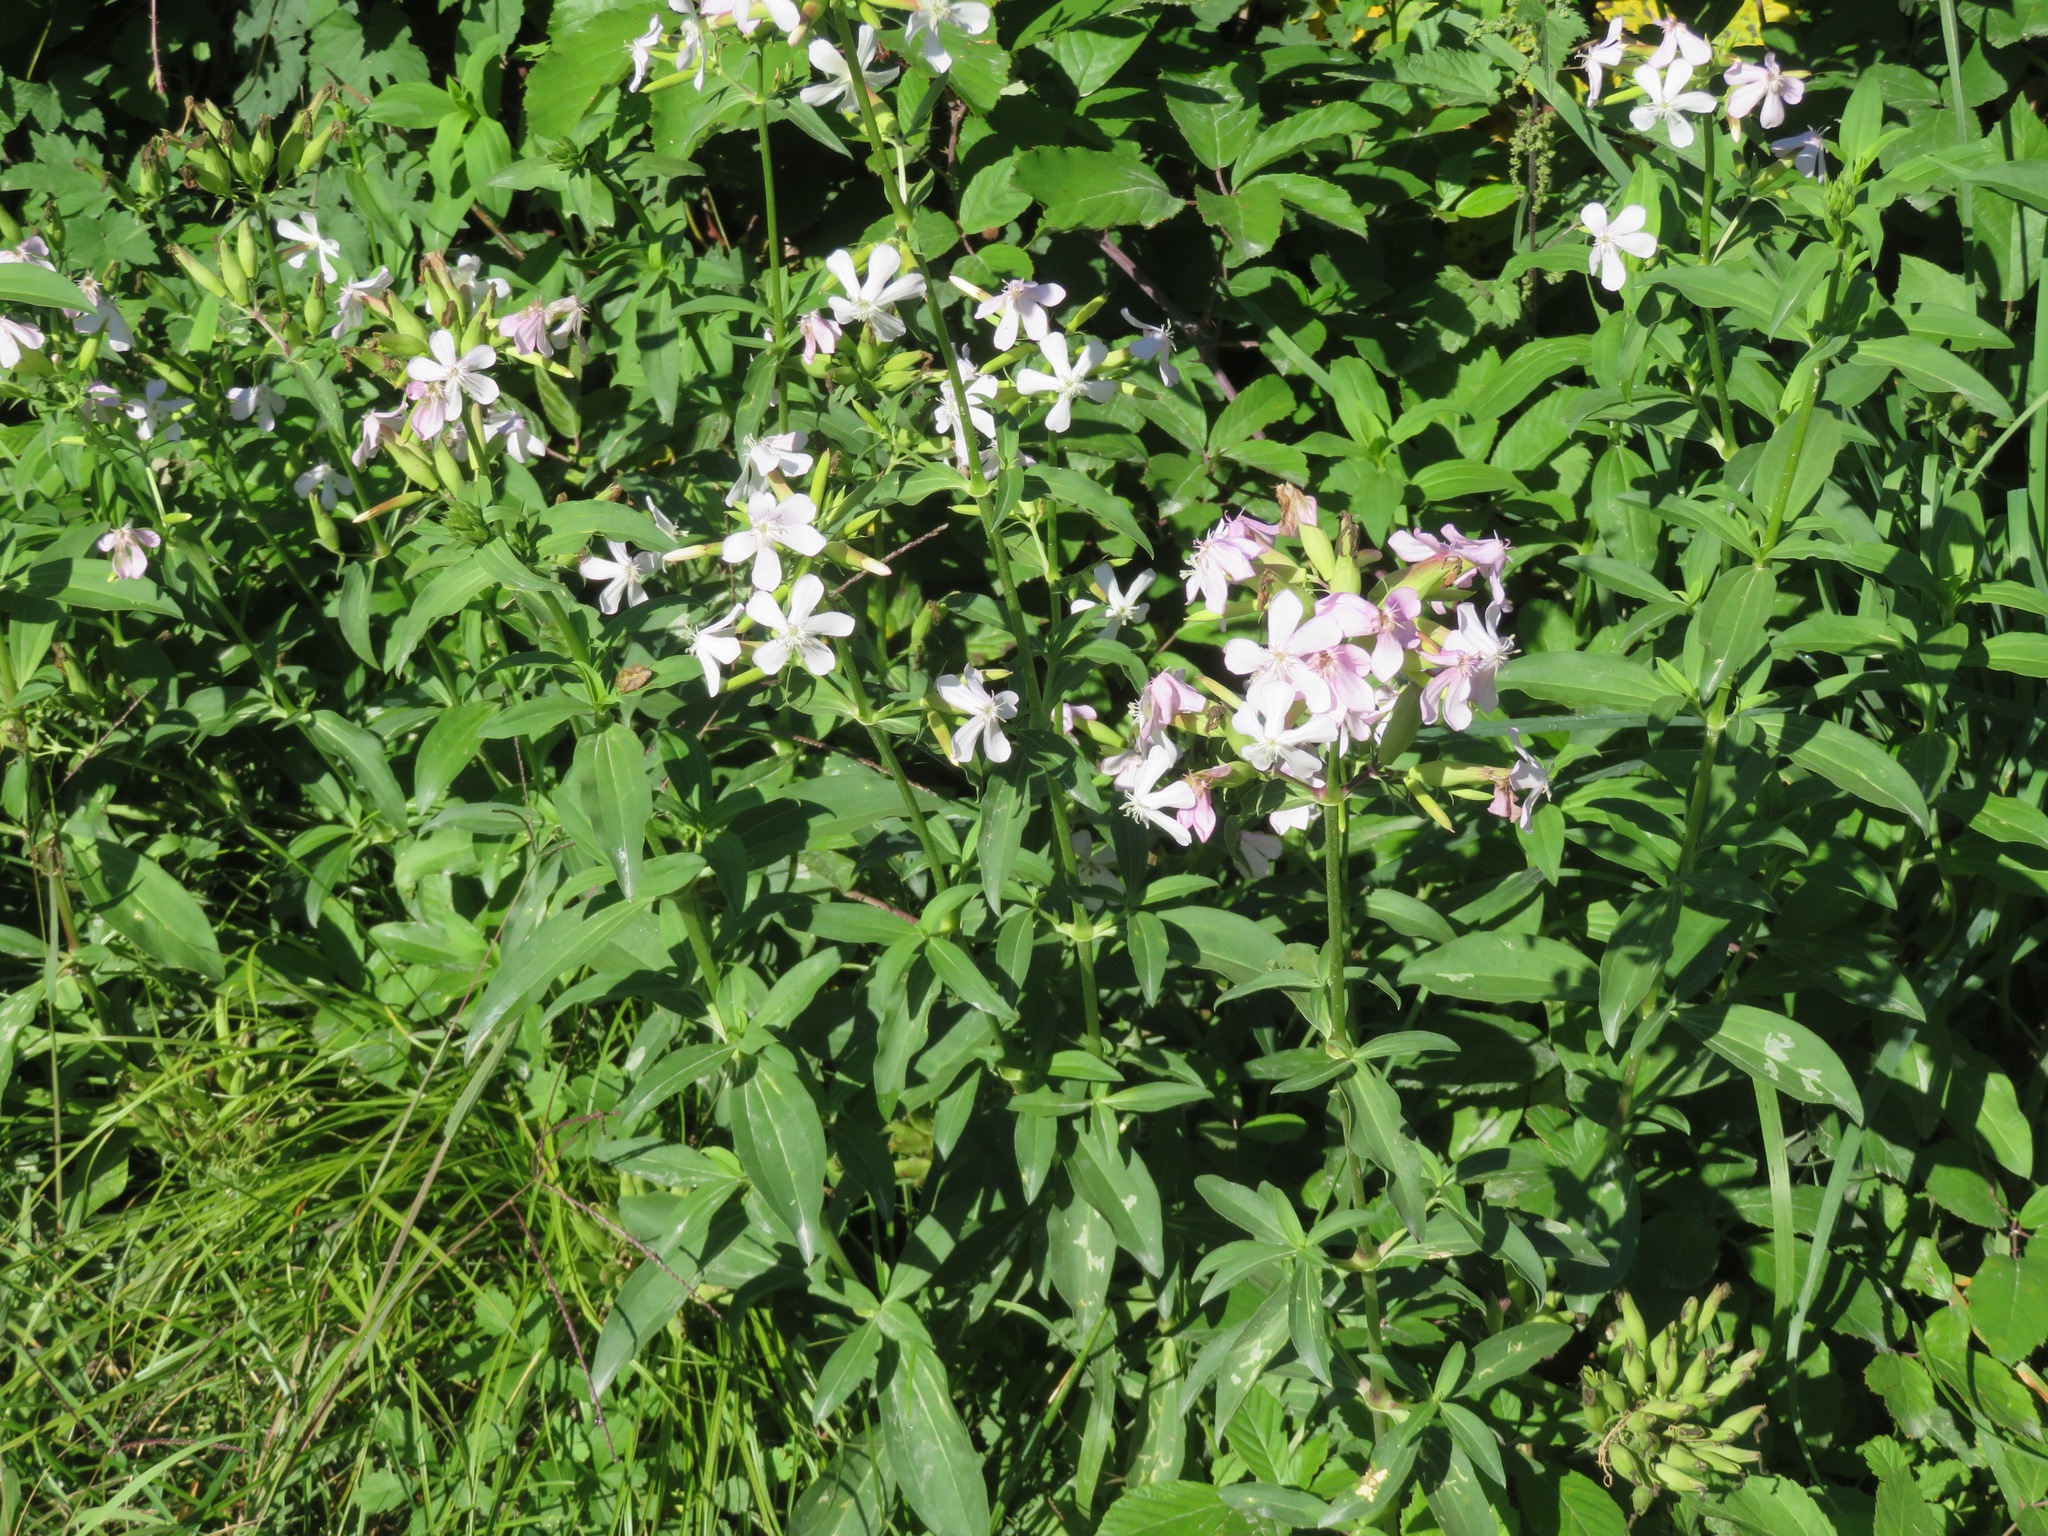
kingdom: Plantae
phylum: Tracheophyta
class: Magnoliopsida
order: Caryophyllales
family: Caryophyllaceae
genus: Saponaria
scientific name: Saponaria officinalis
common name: Soapwort
